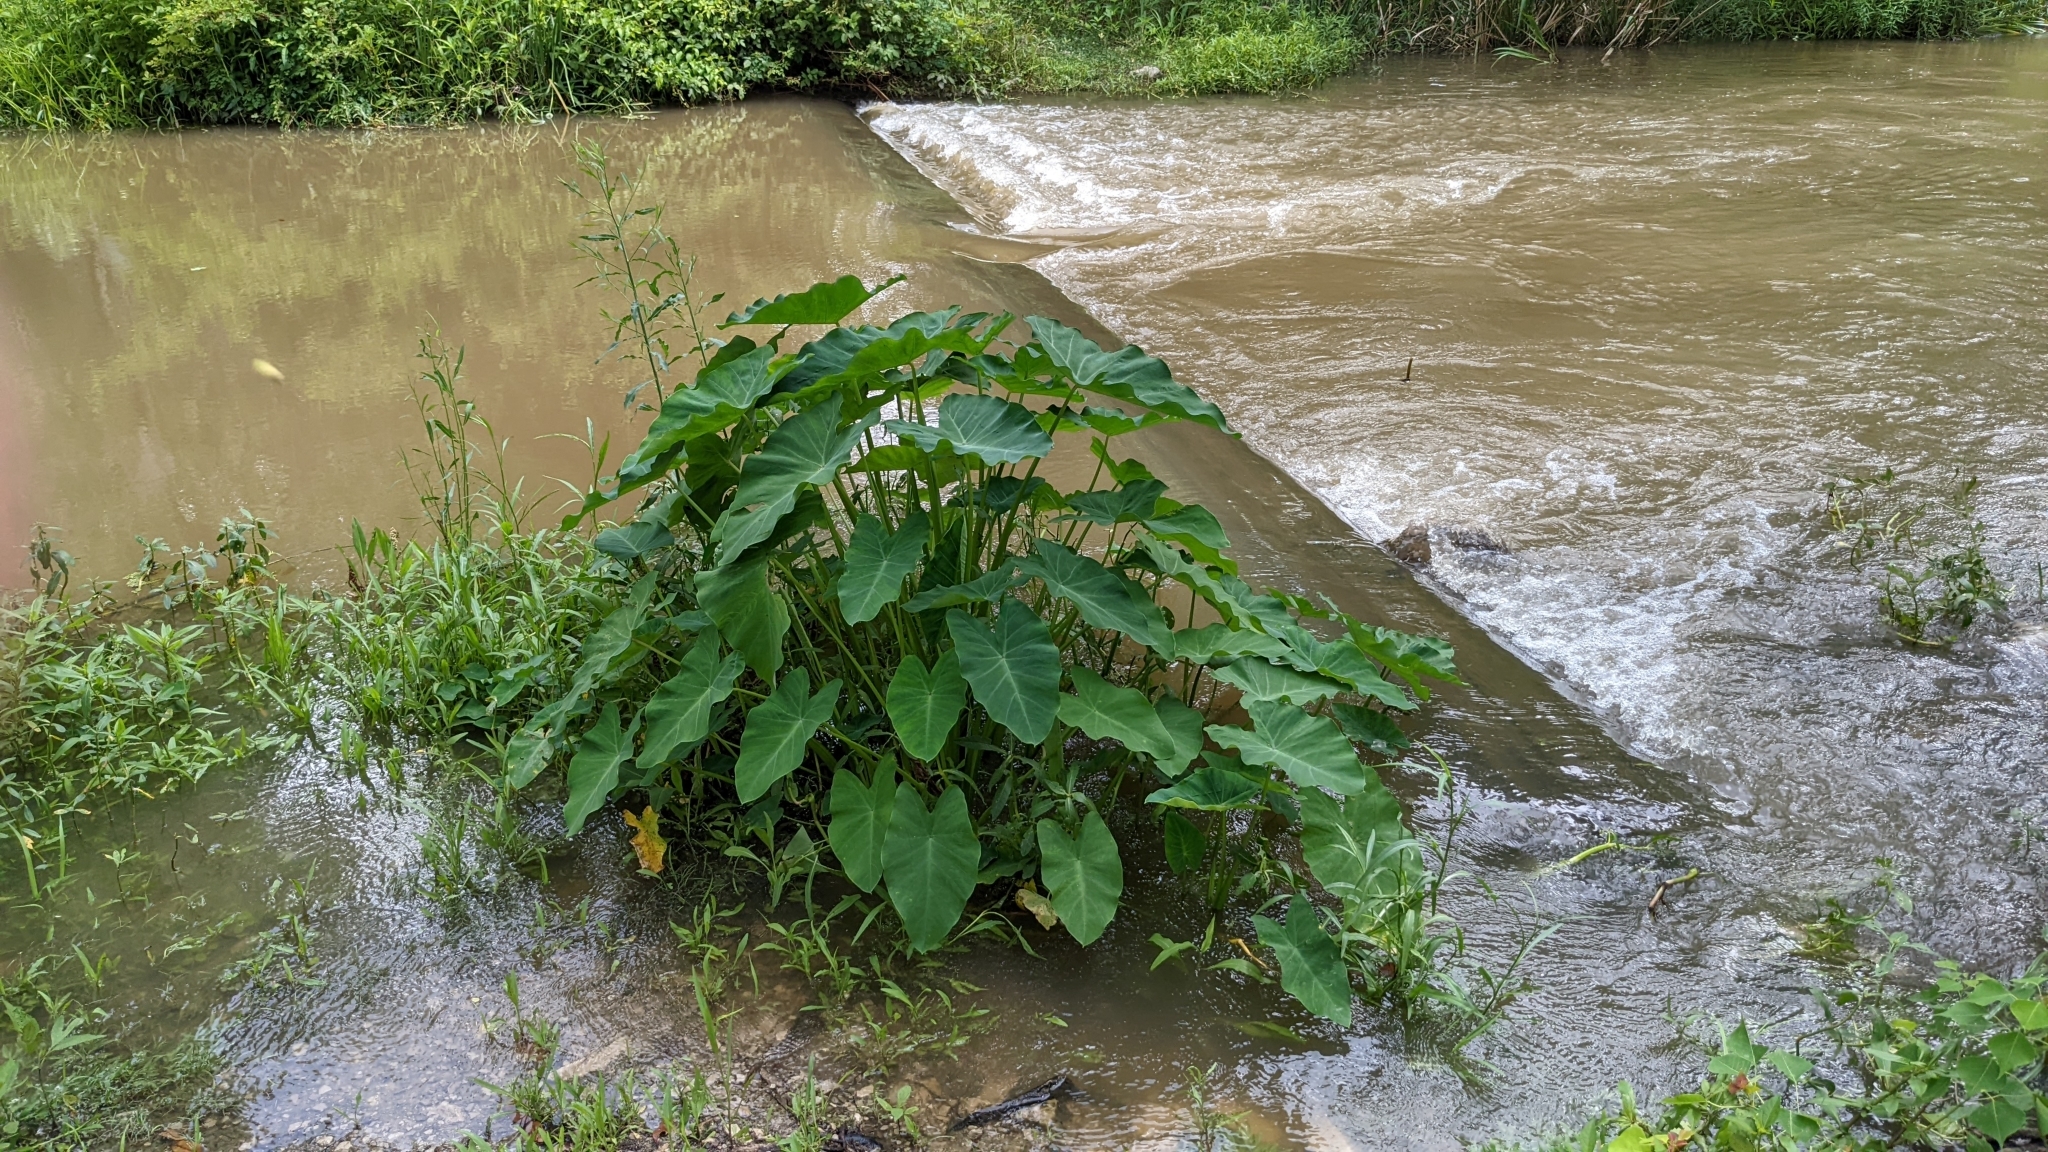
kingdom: Plantae
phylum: Tracheophyta
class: Liliopsida
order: Alismatales
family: Araceae
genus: Colocasia
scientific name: Colocasia esculenta
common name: Taro
